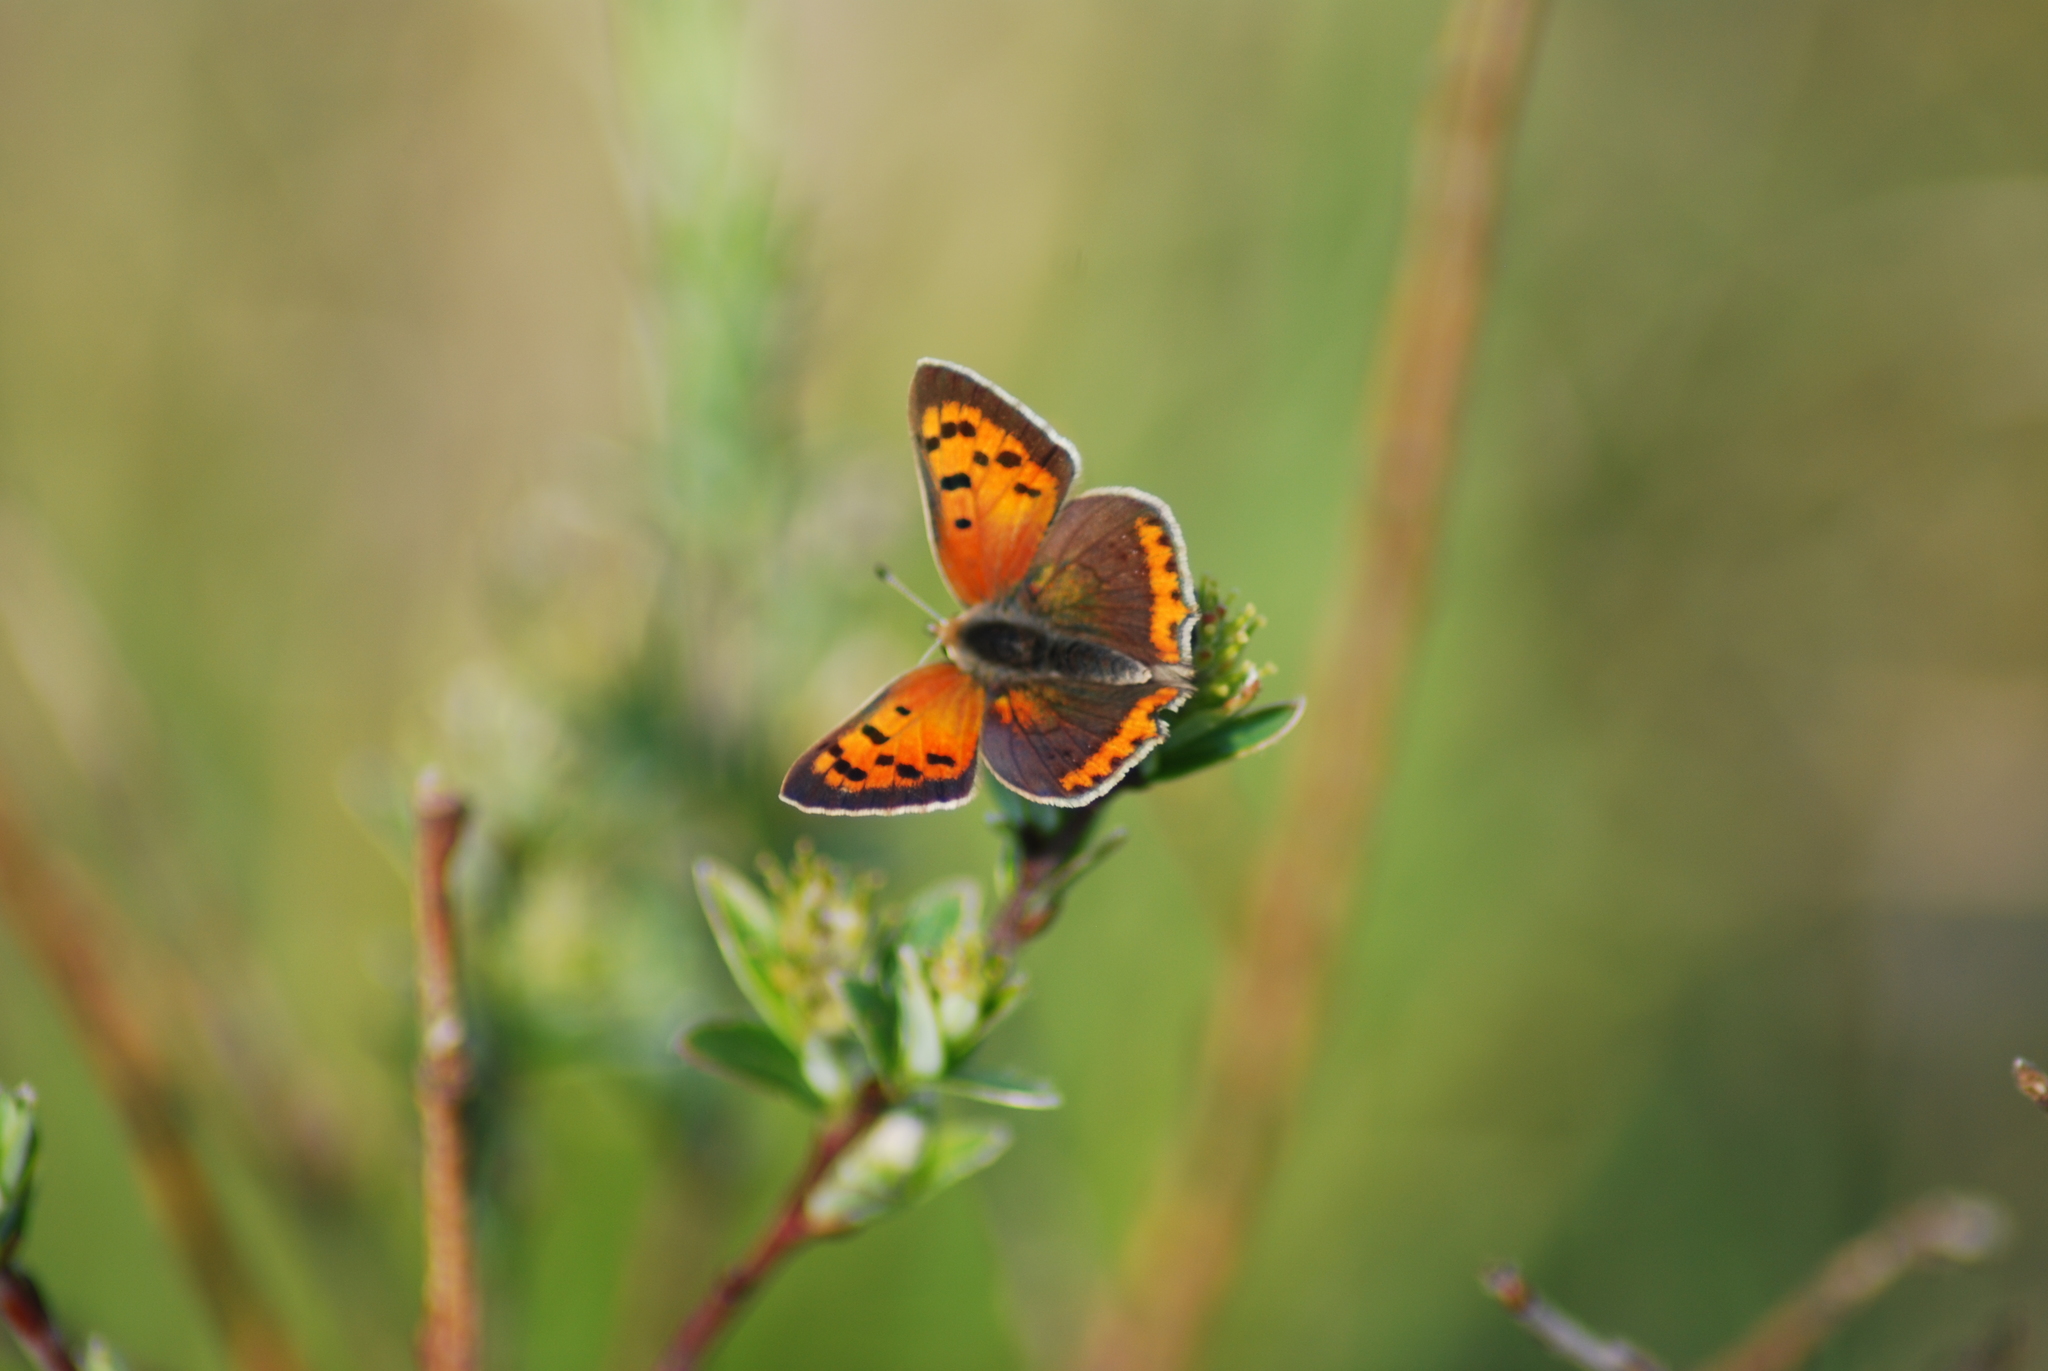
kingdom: Animalia
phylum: Arthropoda
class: Insecta
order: Lepidoptera
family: Lycaenidae
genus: Lycaena
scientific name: Lycaena phlaeas
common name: Small copper
